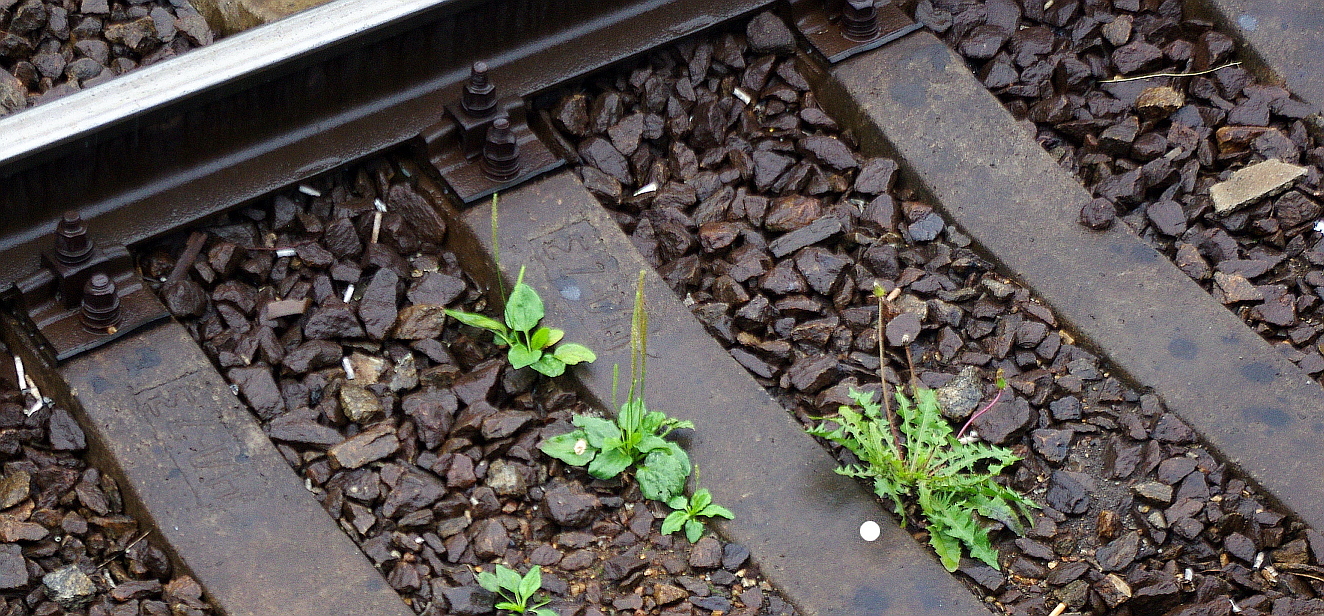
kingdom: Plantae
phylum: Tracheophyta
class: Magnoliopsida
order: Asterales
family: Asteraceae
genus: Taraxacum
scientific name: Taraxacum officinale
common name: Common dandelion
